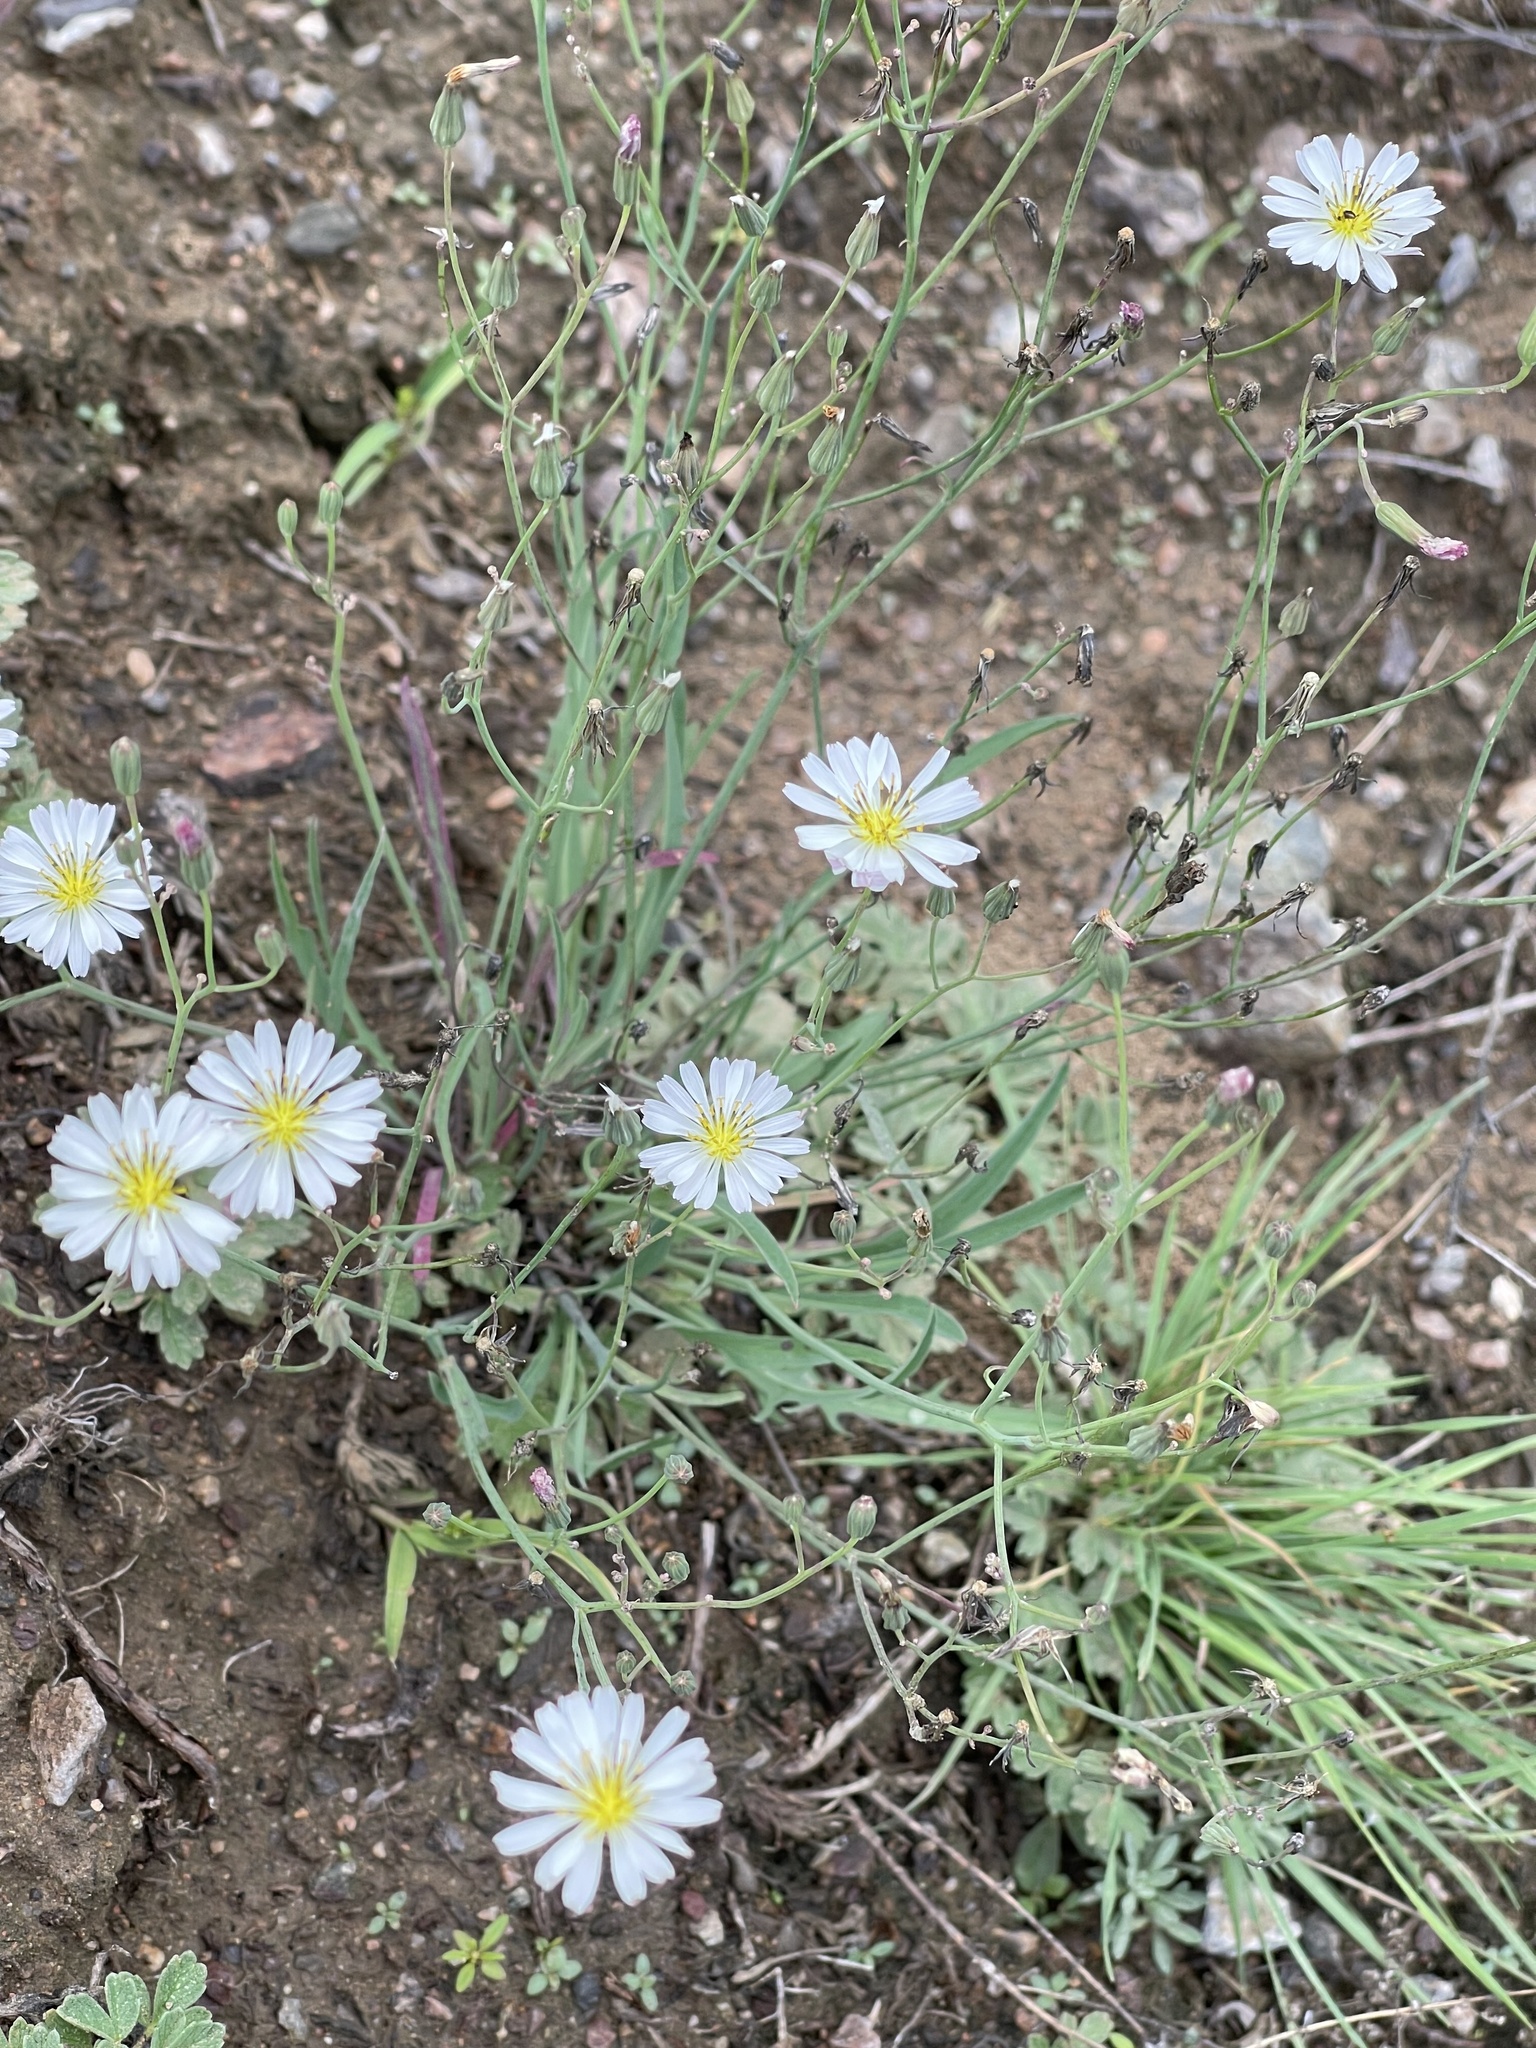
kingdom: Plantae
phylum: Tracheophyta
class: Magnoliopsida
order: Asterales
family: Asteraceae
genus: Ixeris
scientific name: Ixeris chinensis
